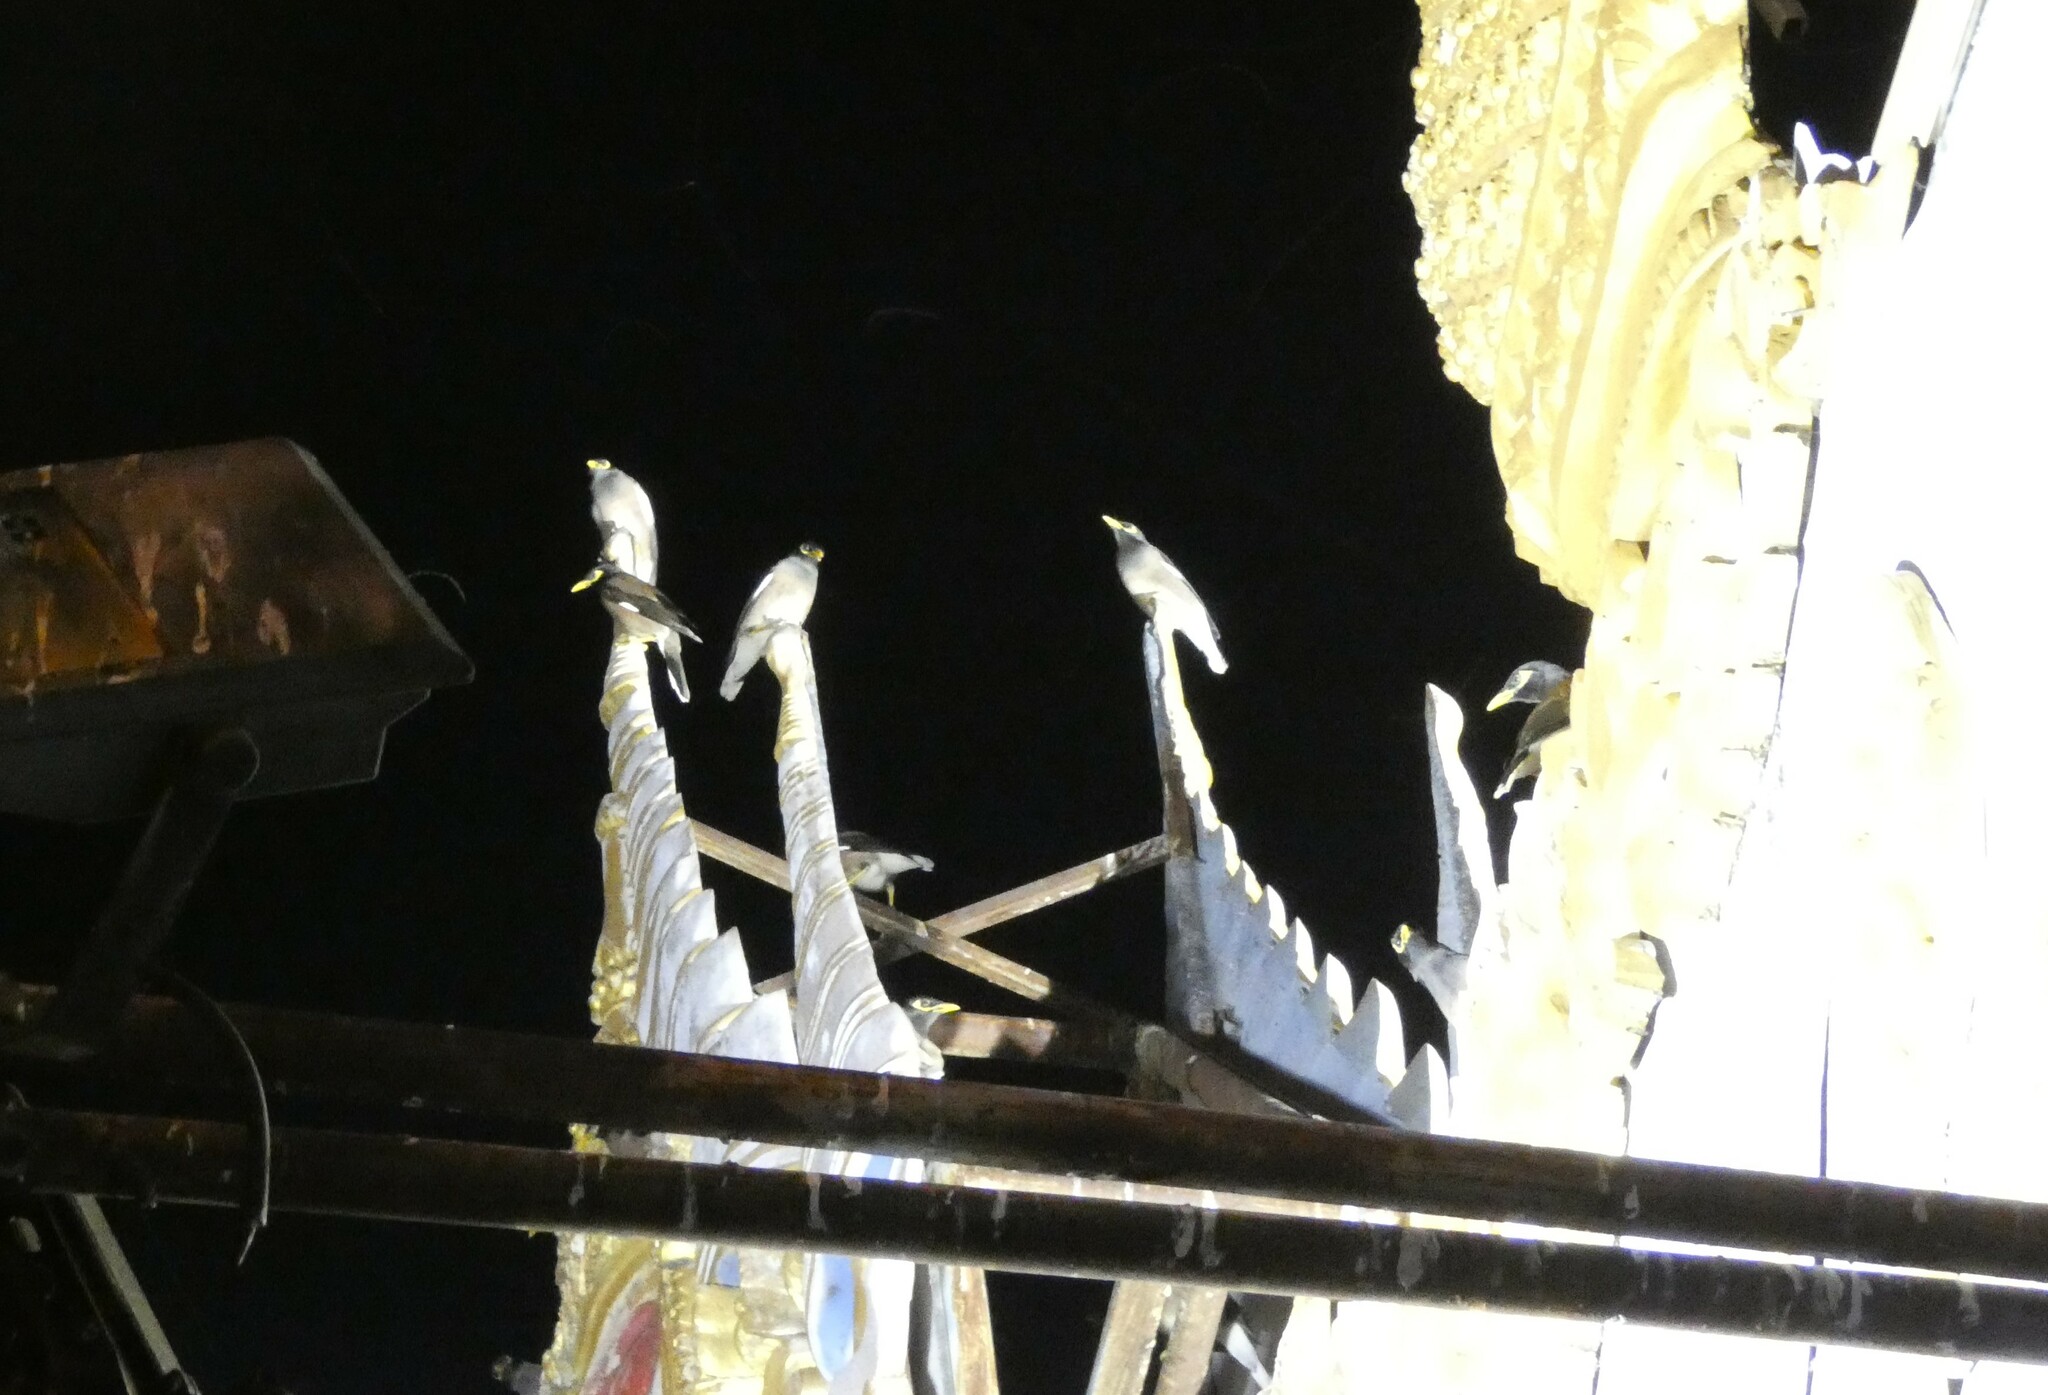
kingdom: Animalia
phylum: Chordata
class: Aves
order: Passeriformes
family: Sturnidae
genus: Acridotheres
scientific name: Acridotheres tristis
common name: Common myna
